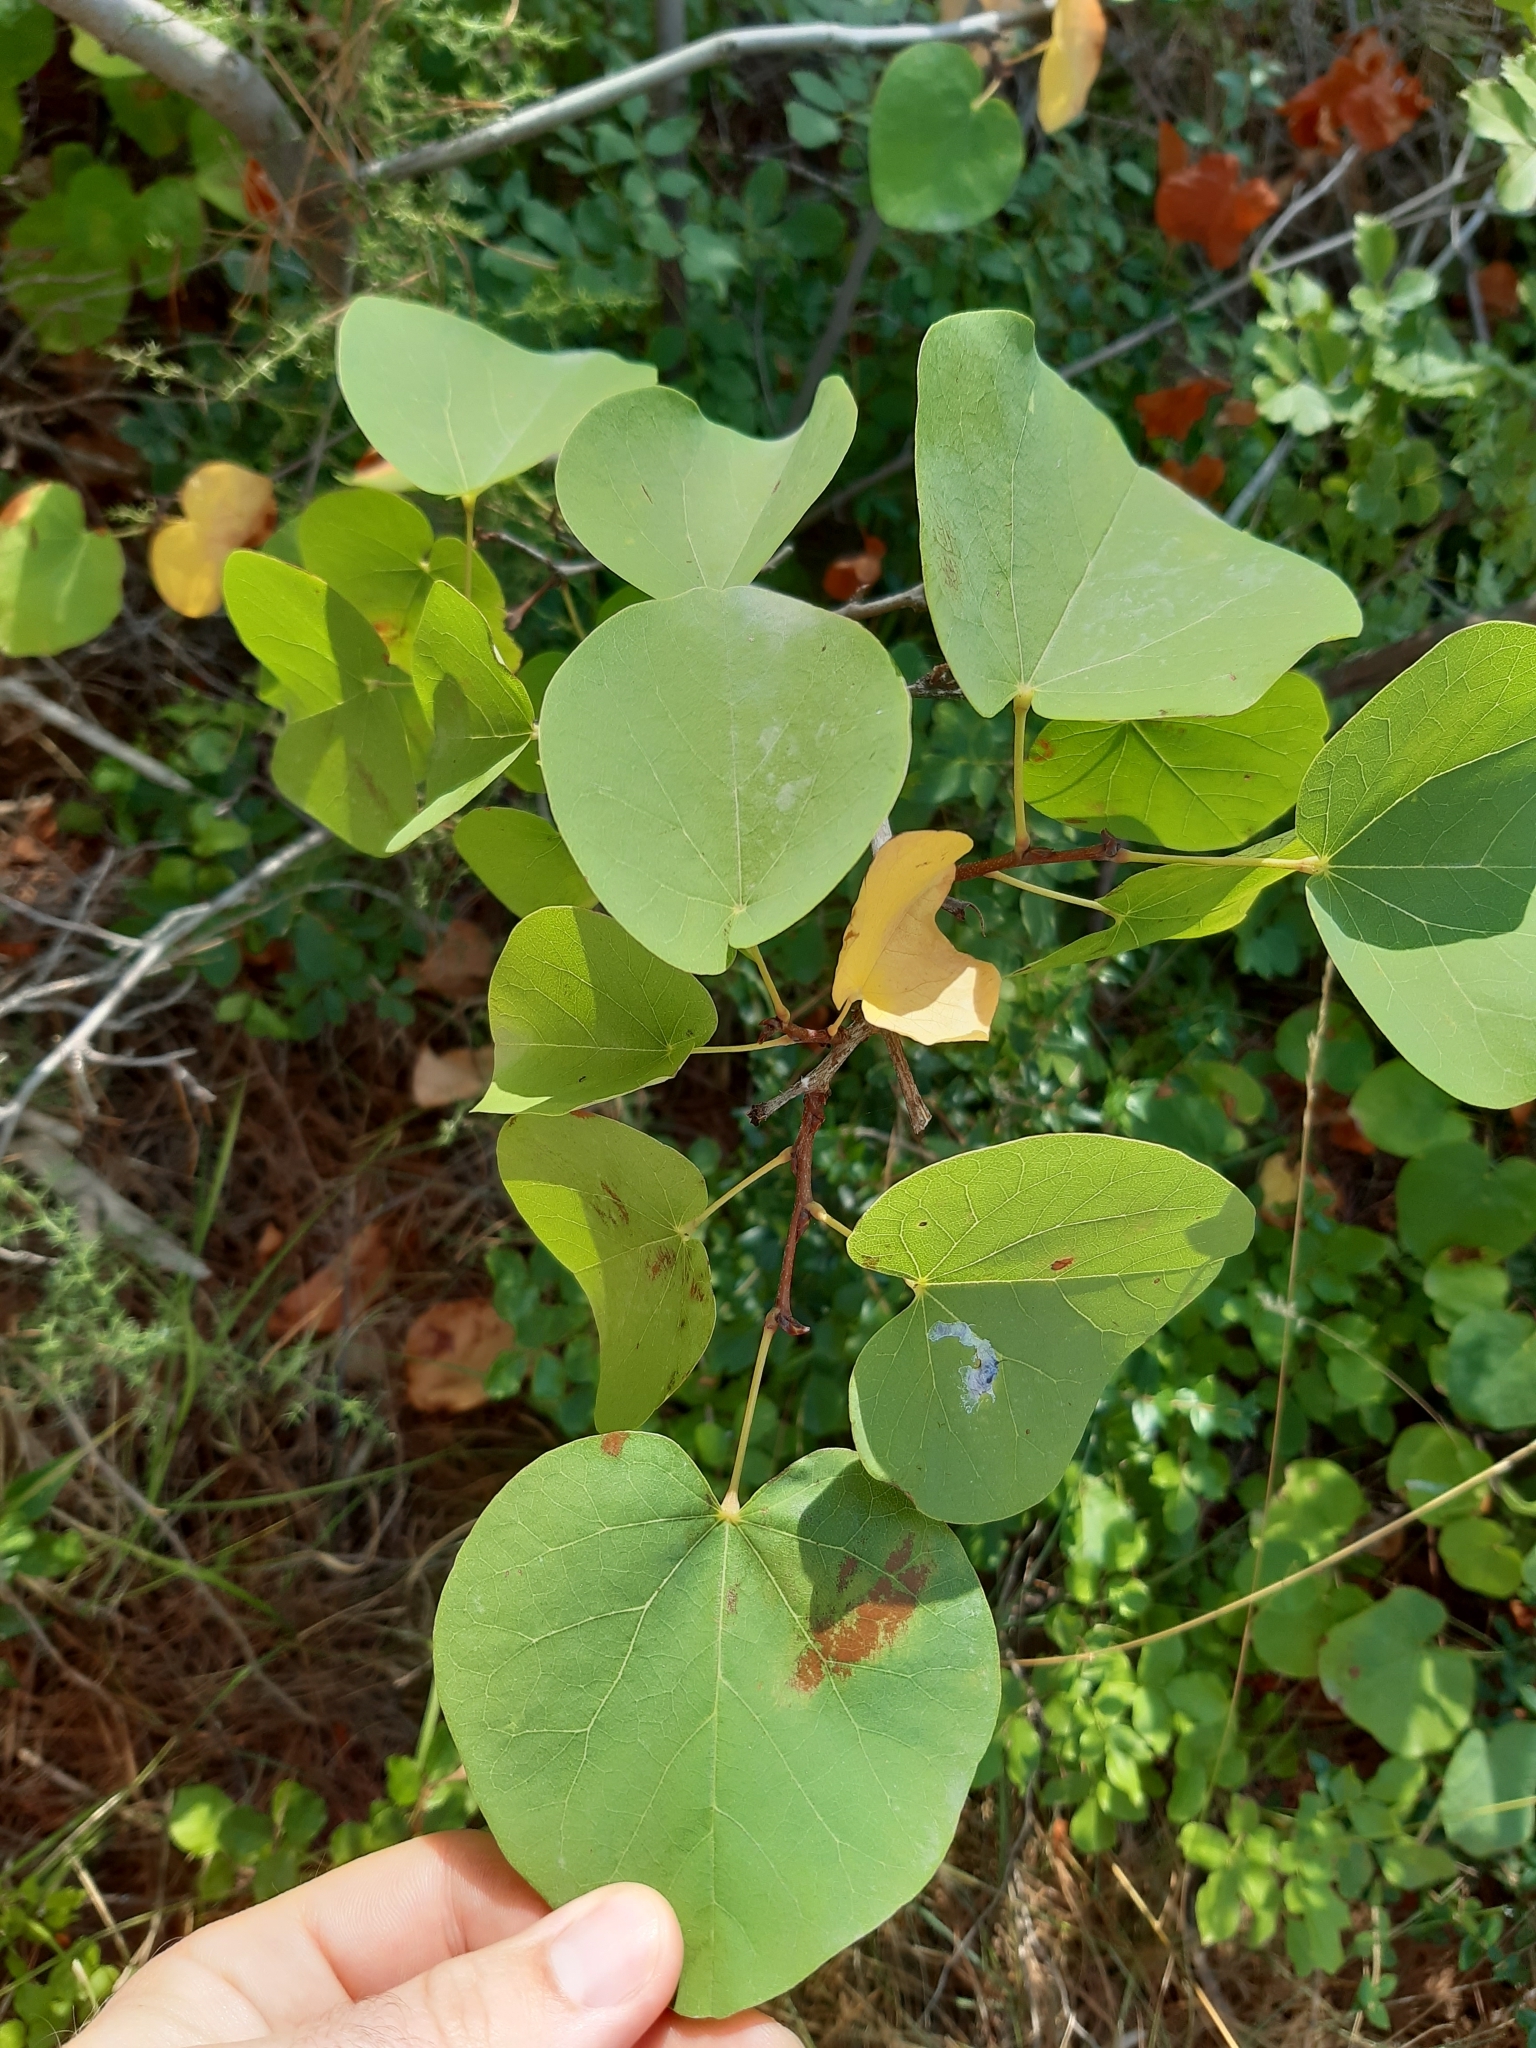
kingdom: Plantae
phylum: Tracheophyta
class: Magnoliopsida
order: Fabales
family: Fabaceae
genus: Cercis
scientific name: Cercis siliquastrum
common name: Judas tree
